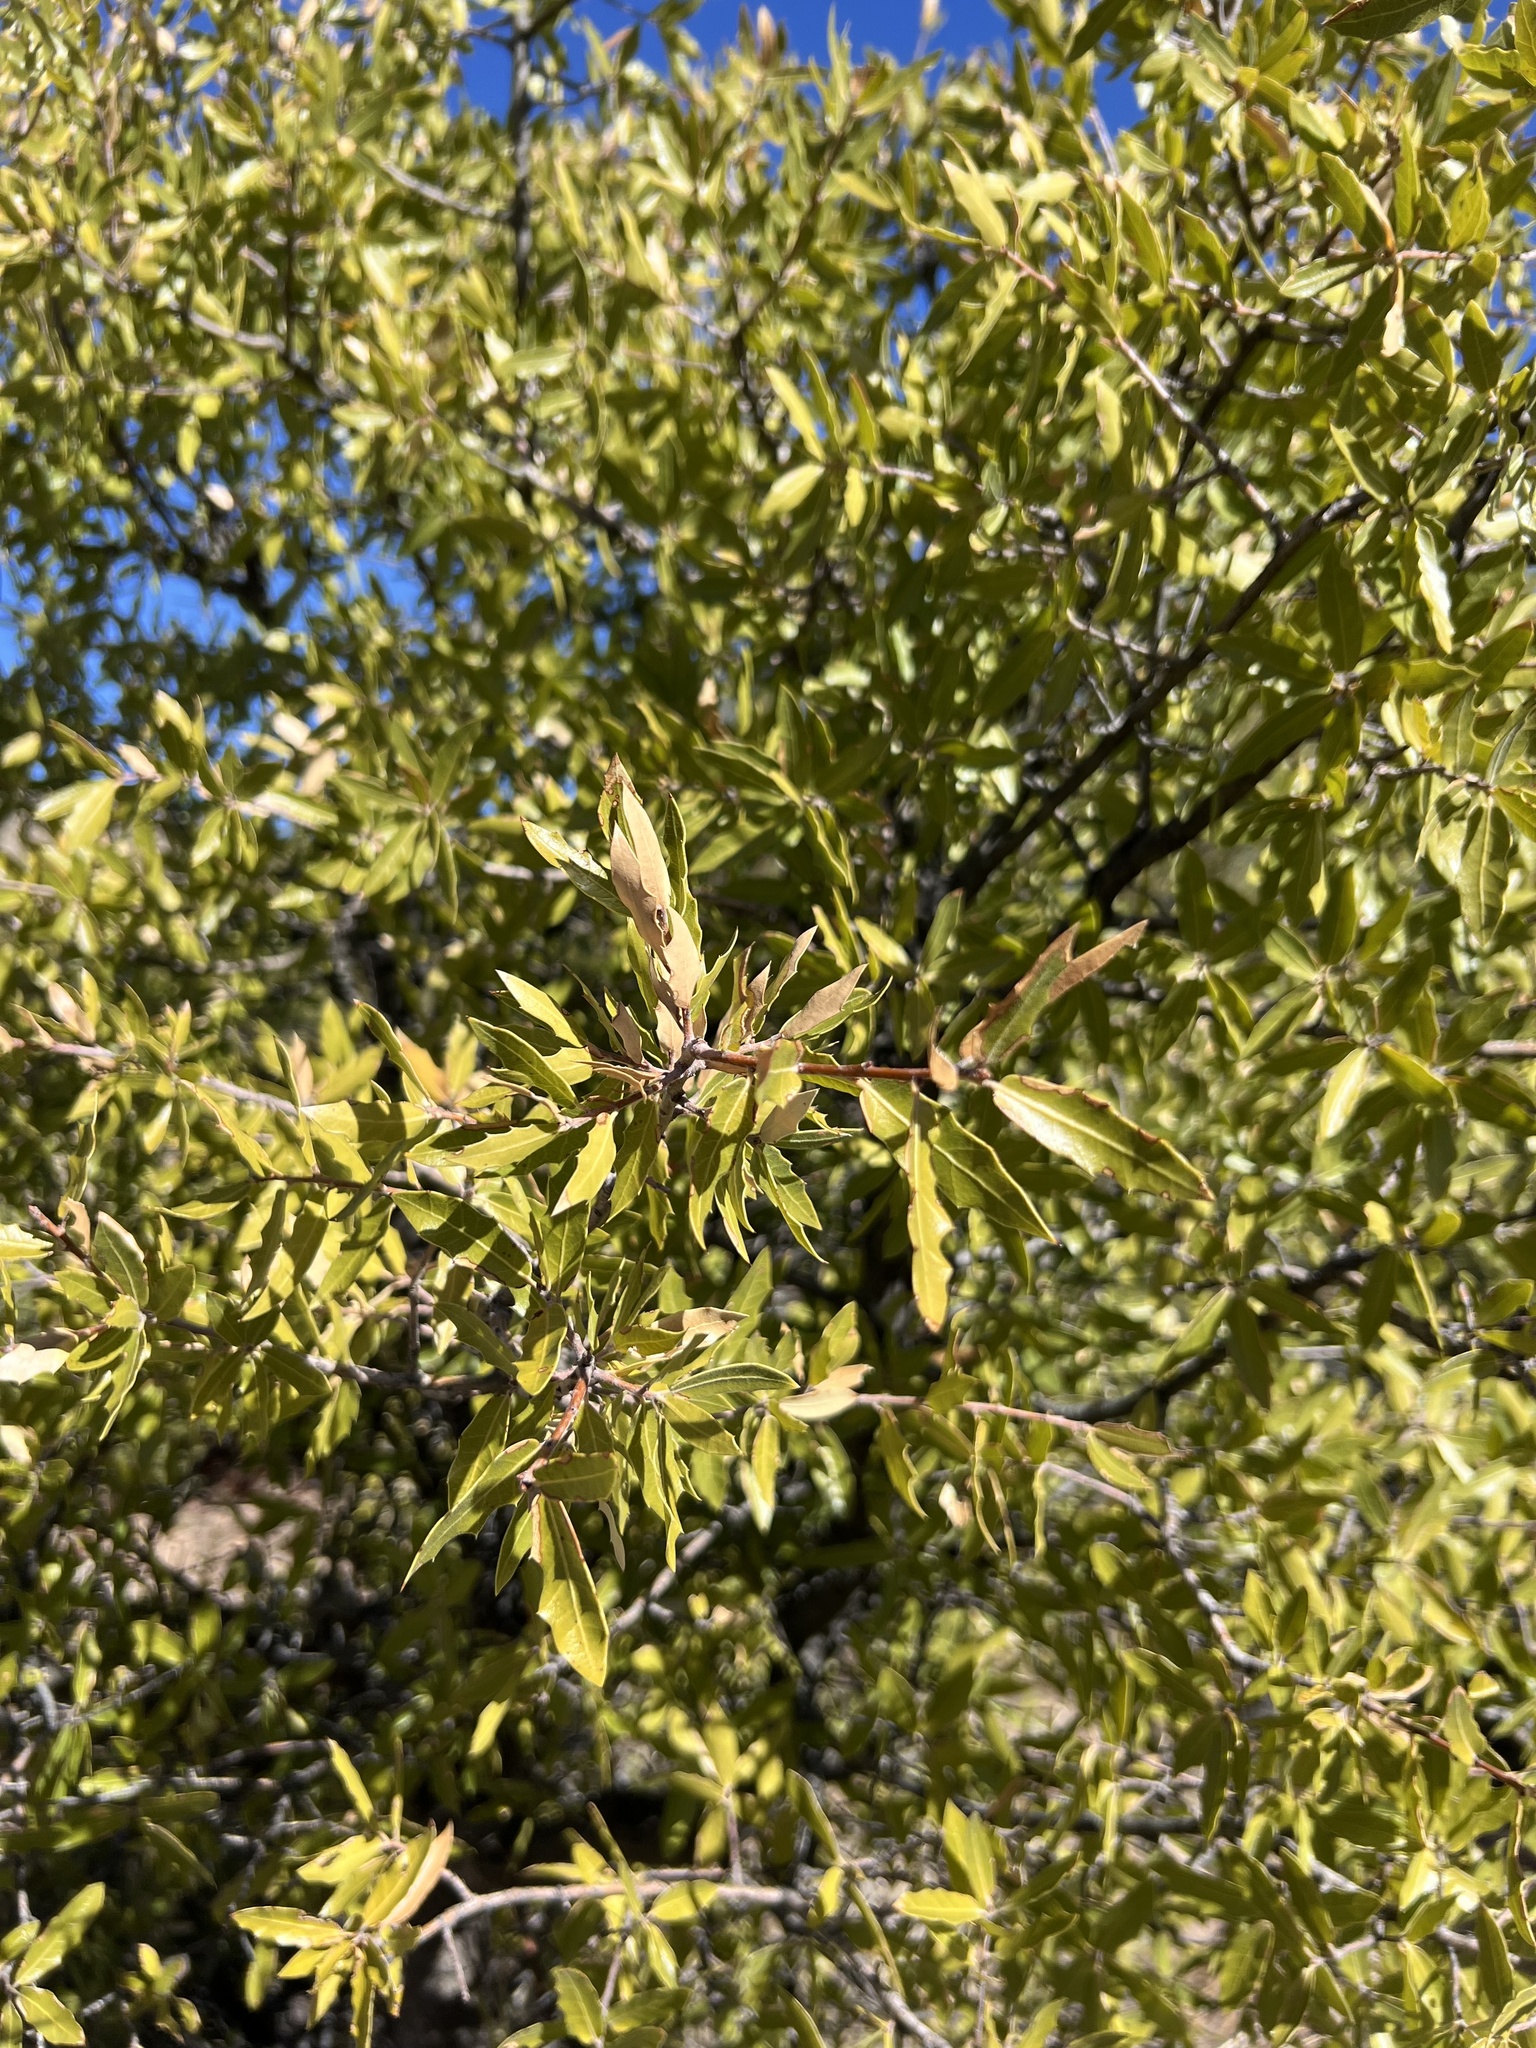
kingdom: Plantae
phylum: Tracheophyta
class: Magnoliopsida
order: Fagales
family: Fagaceae
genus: Quercus
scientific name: Quercus emoryi
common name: Emory oak
